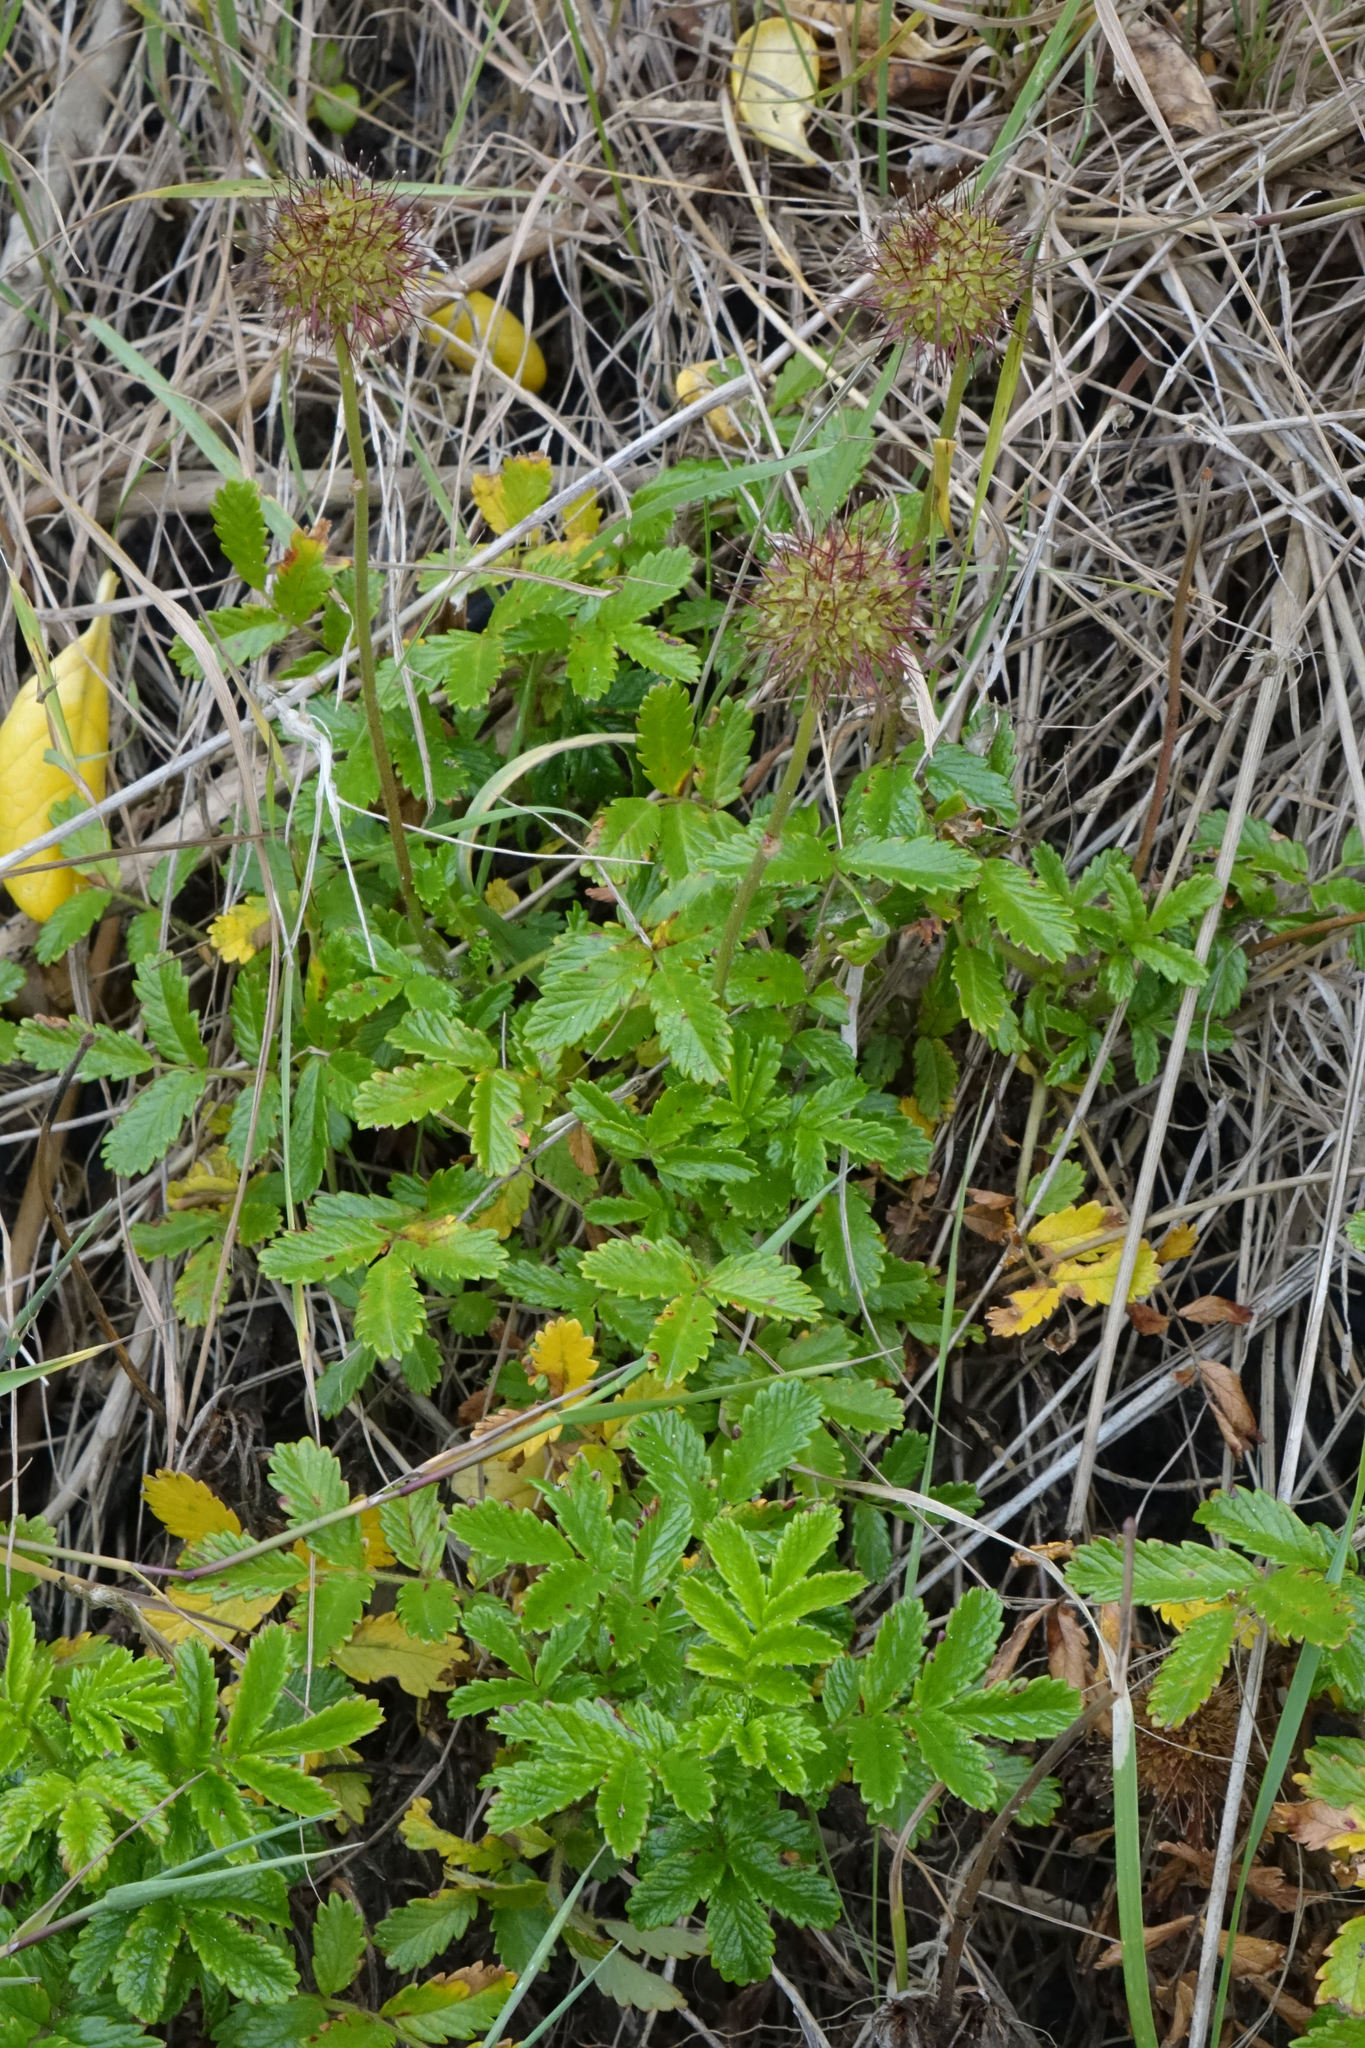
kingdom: Plantae
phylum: Tracheophyta
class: Magnoliopsida
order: Rosales
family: Rosaceae
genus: Acaena
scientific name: Acaena pallida
